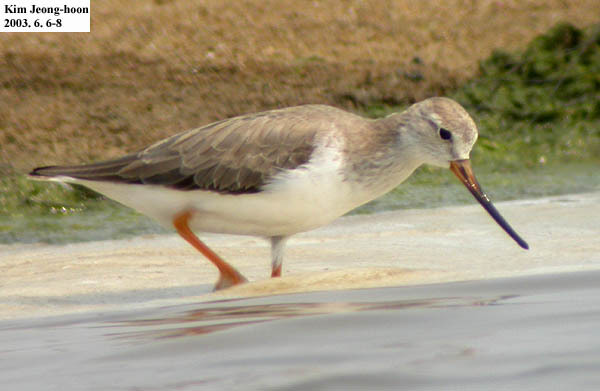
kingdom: Animalia
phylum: Chordata
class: Aves
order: Charadriiformes
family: Scolopacidae
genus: Xenus
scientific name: Xenus cinereus
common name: Terek sandpiper
